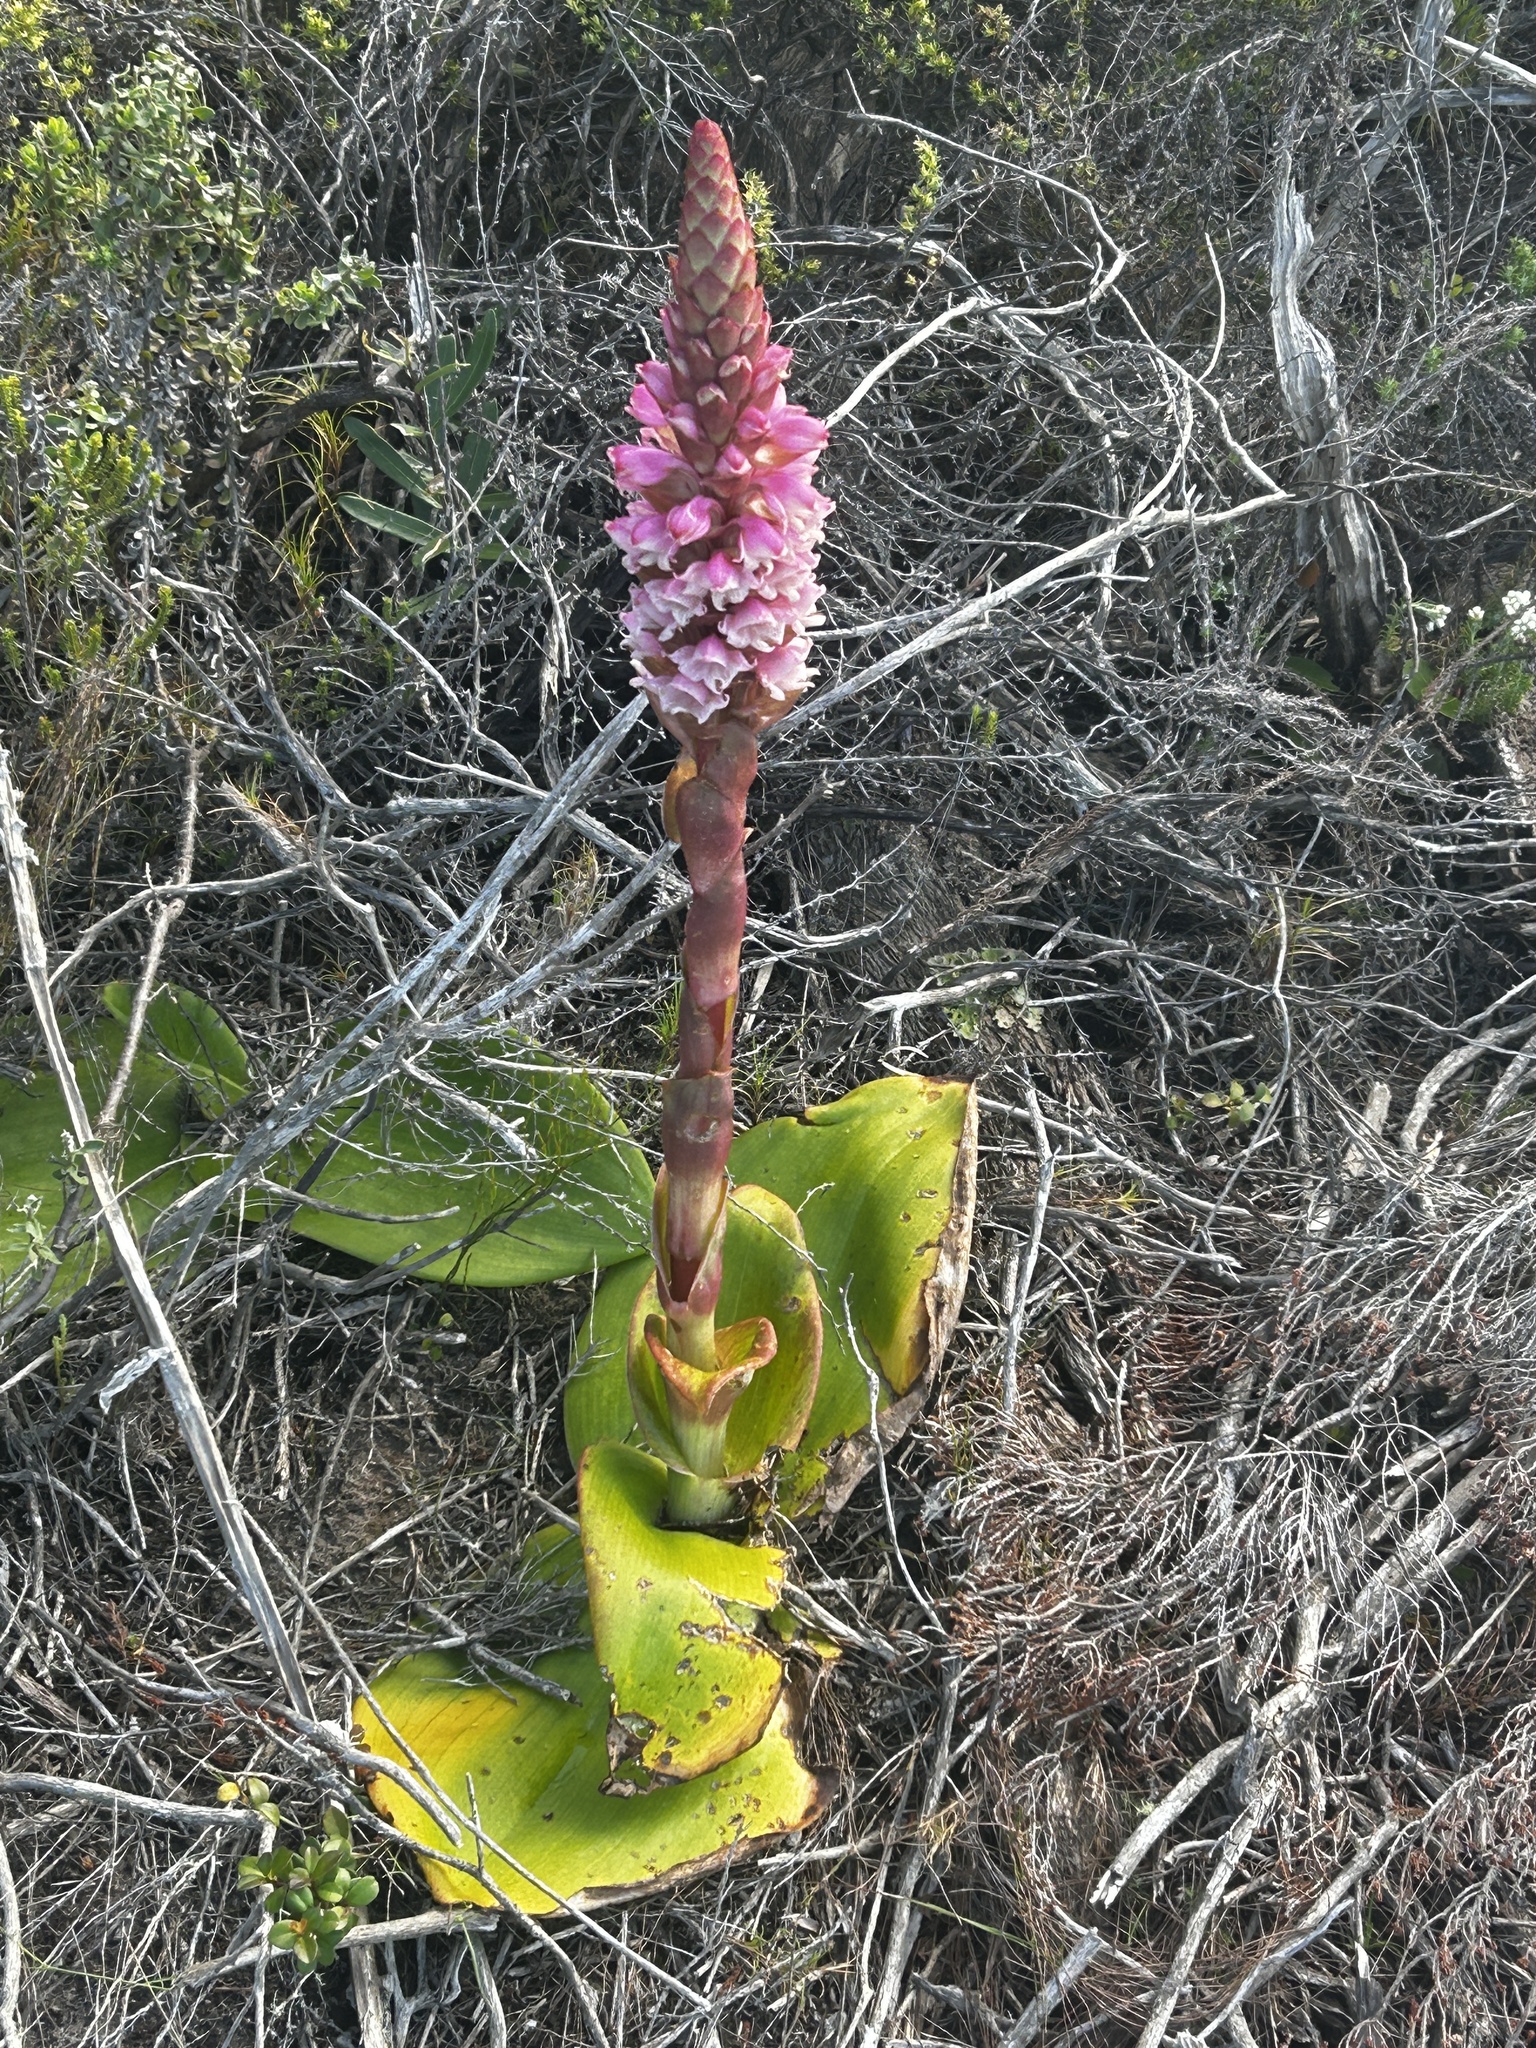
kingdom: Plantae
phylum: Tracheophyta
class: Liliopsida
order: Asparagales
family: Orchidaceae
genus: Satyrium
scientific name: Satyrium carneum
